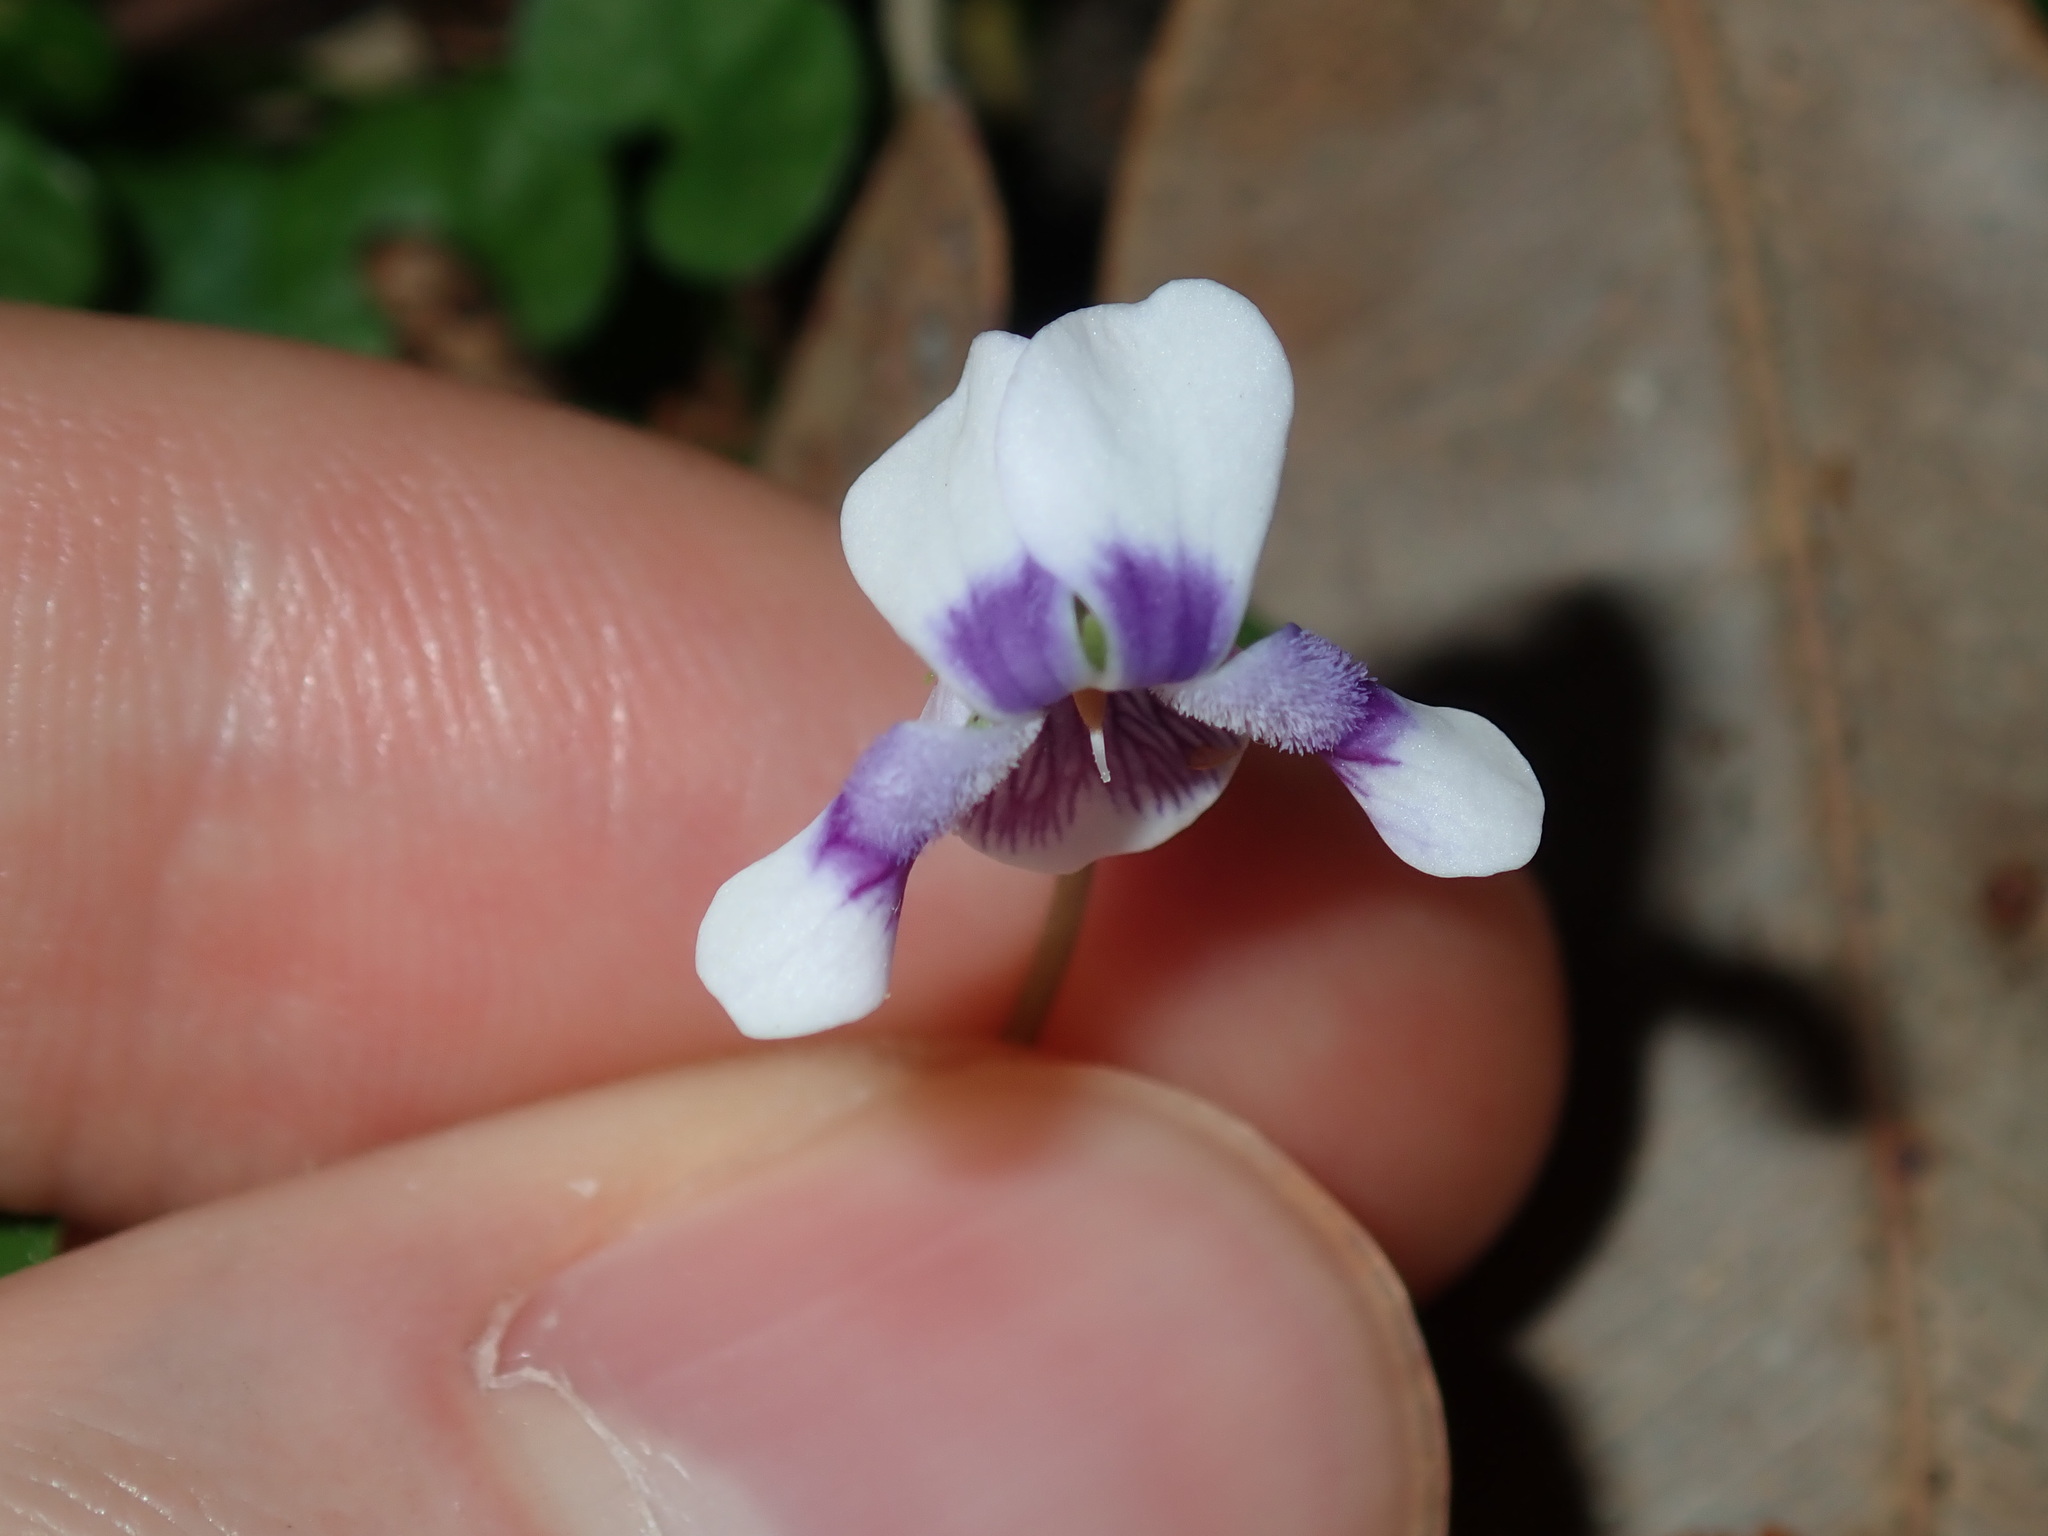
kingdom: Plantae
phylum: Tracheophyta
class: Magnoliopsida
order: Malpighiales
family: Violaceae
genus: Viola
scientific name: Viola banksii
